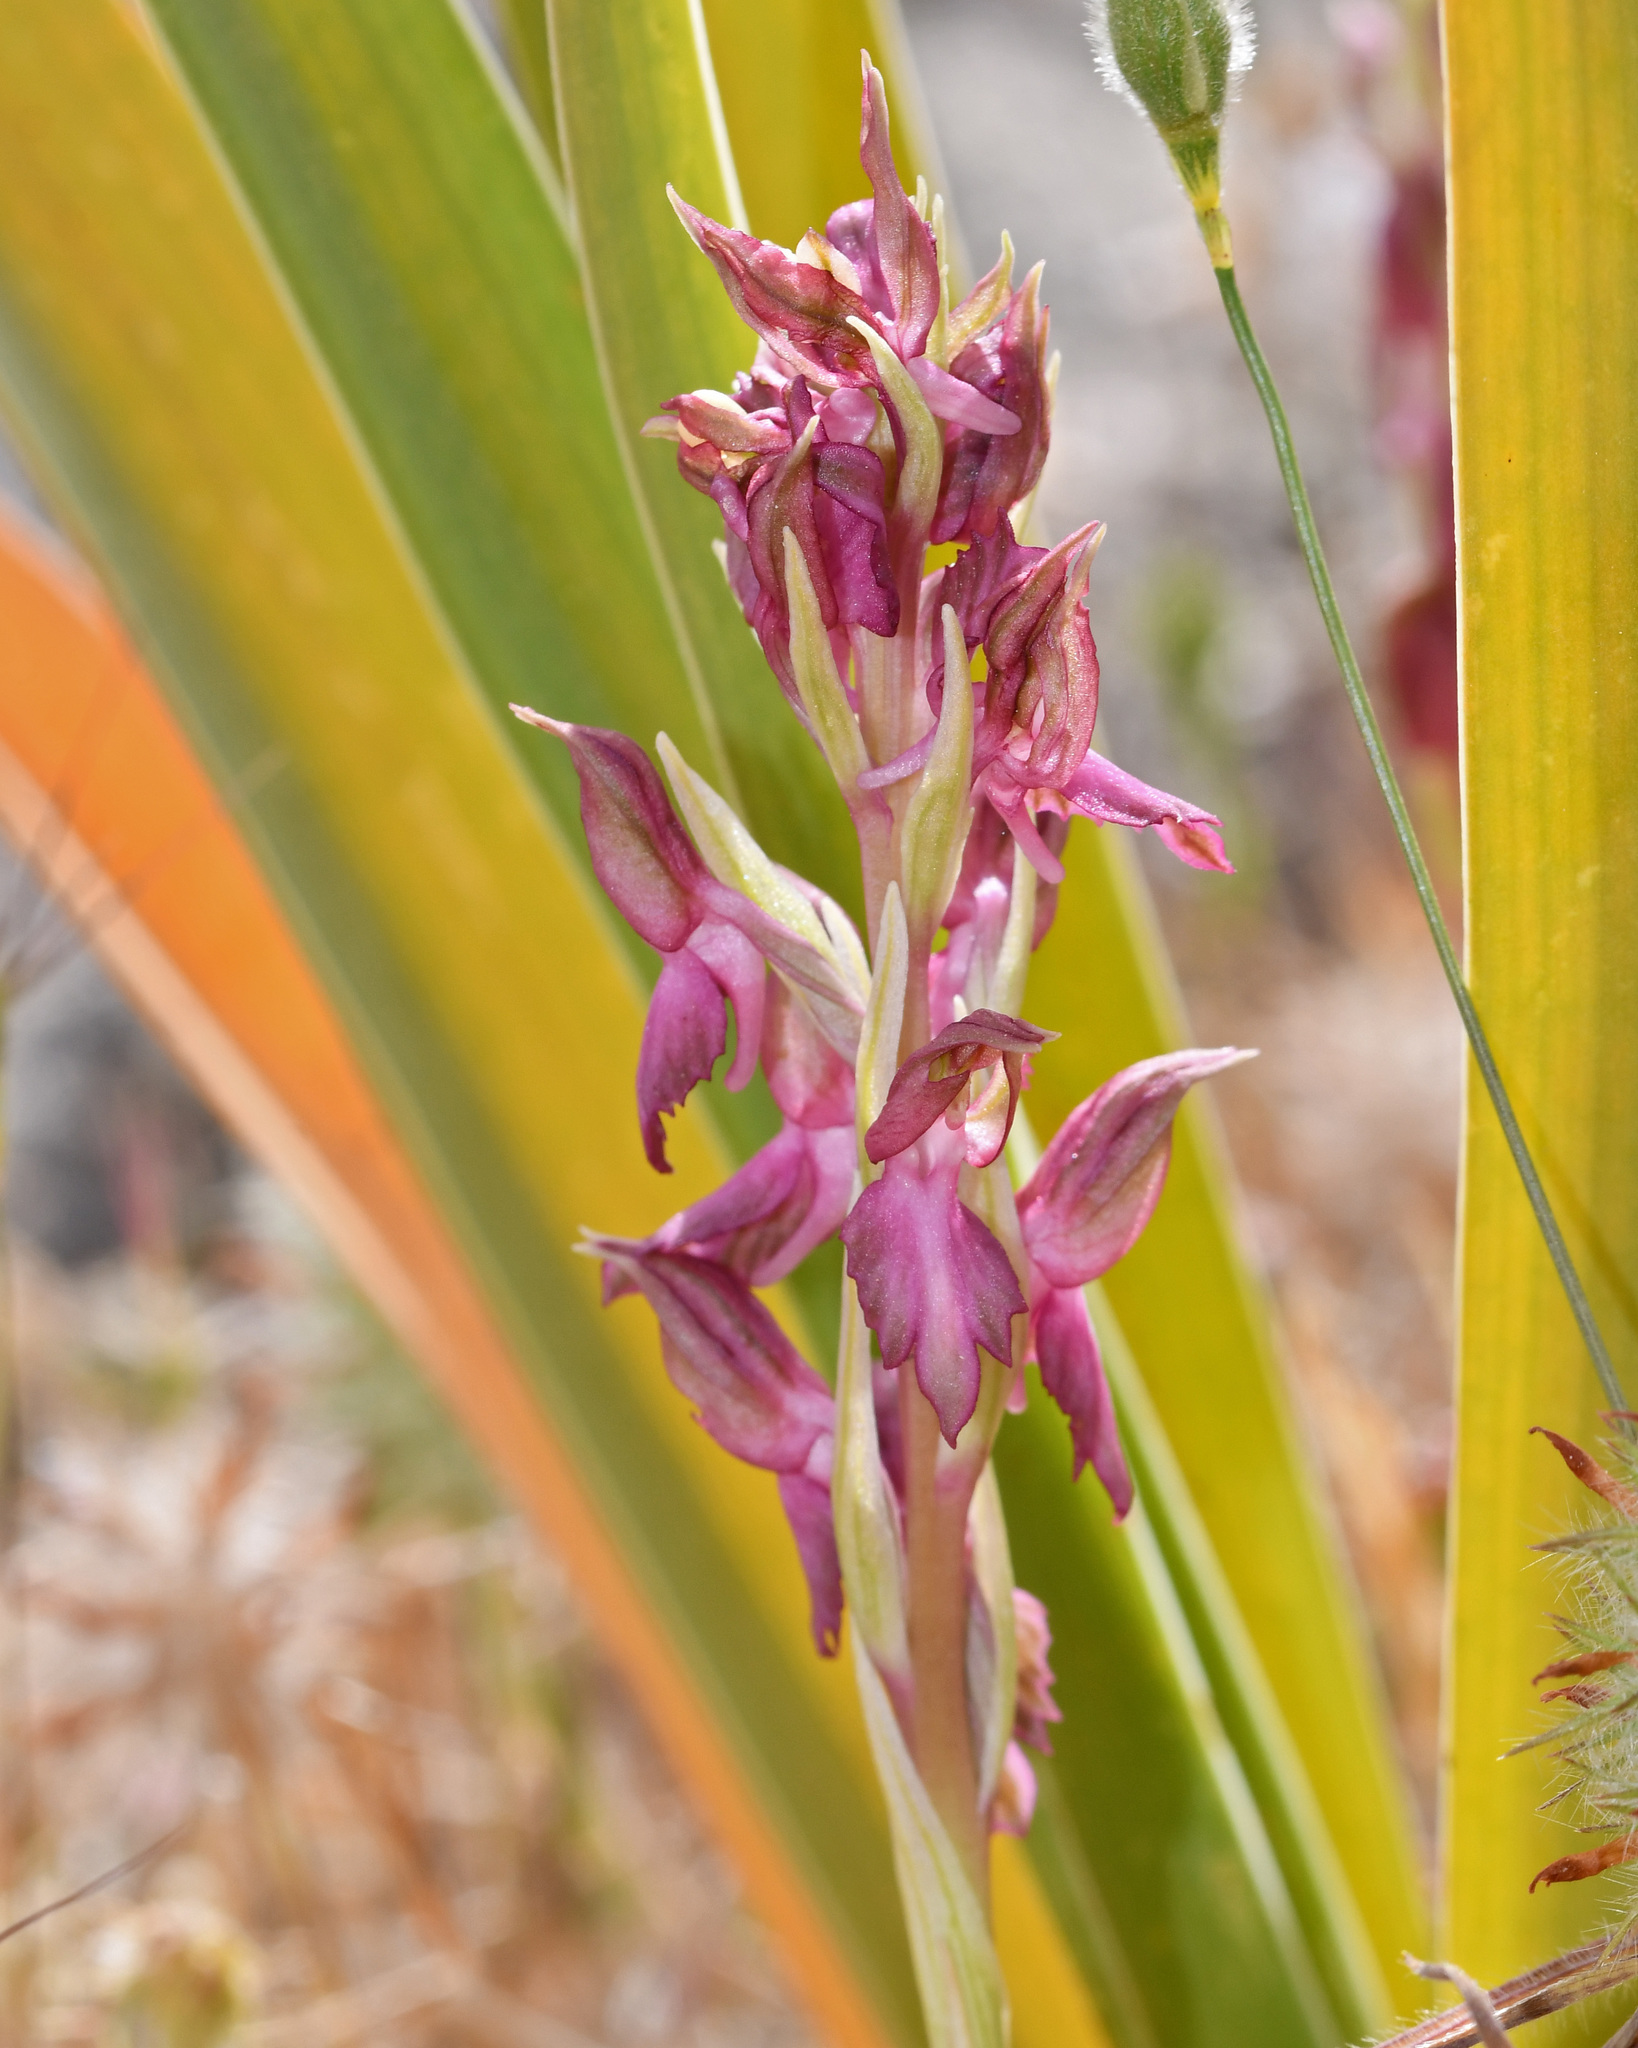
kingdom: Plantae
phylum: Tracheophyta
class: Liliopsida
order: Asparagales
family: Orchidaceae
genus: Anacamptis
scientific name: Anacamptis sancta
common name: Holy orchid
